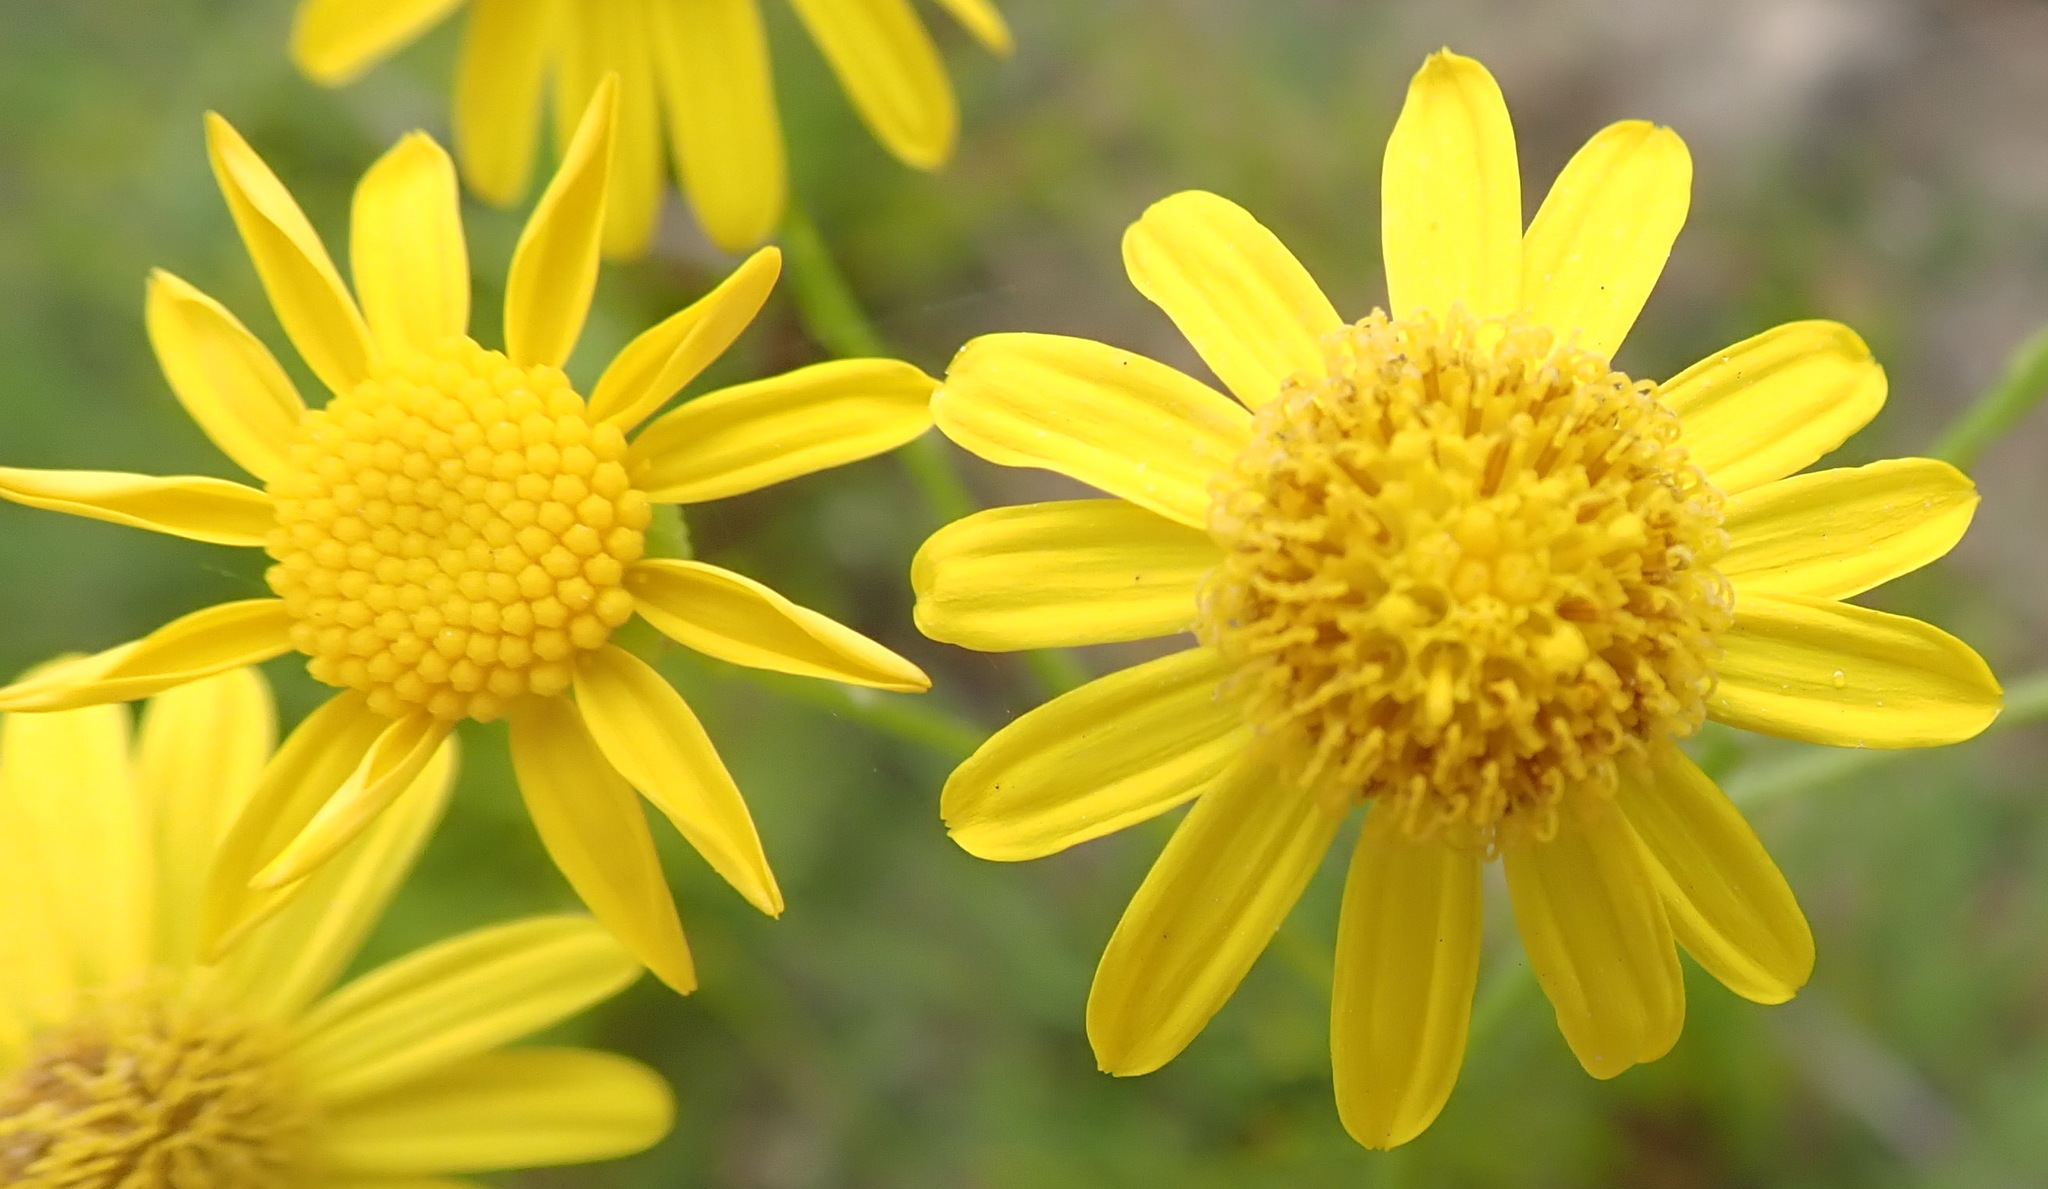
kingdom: Plantae
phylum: Tracheophyta
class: Magnoliopsida
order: Asterales
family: Asteraceae
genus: Senecio
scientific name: Senecio ilicifolius
